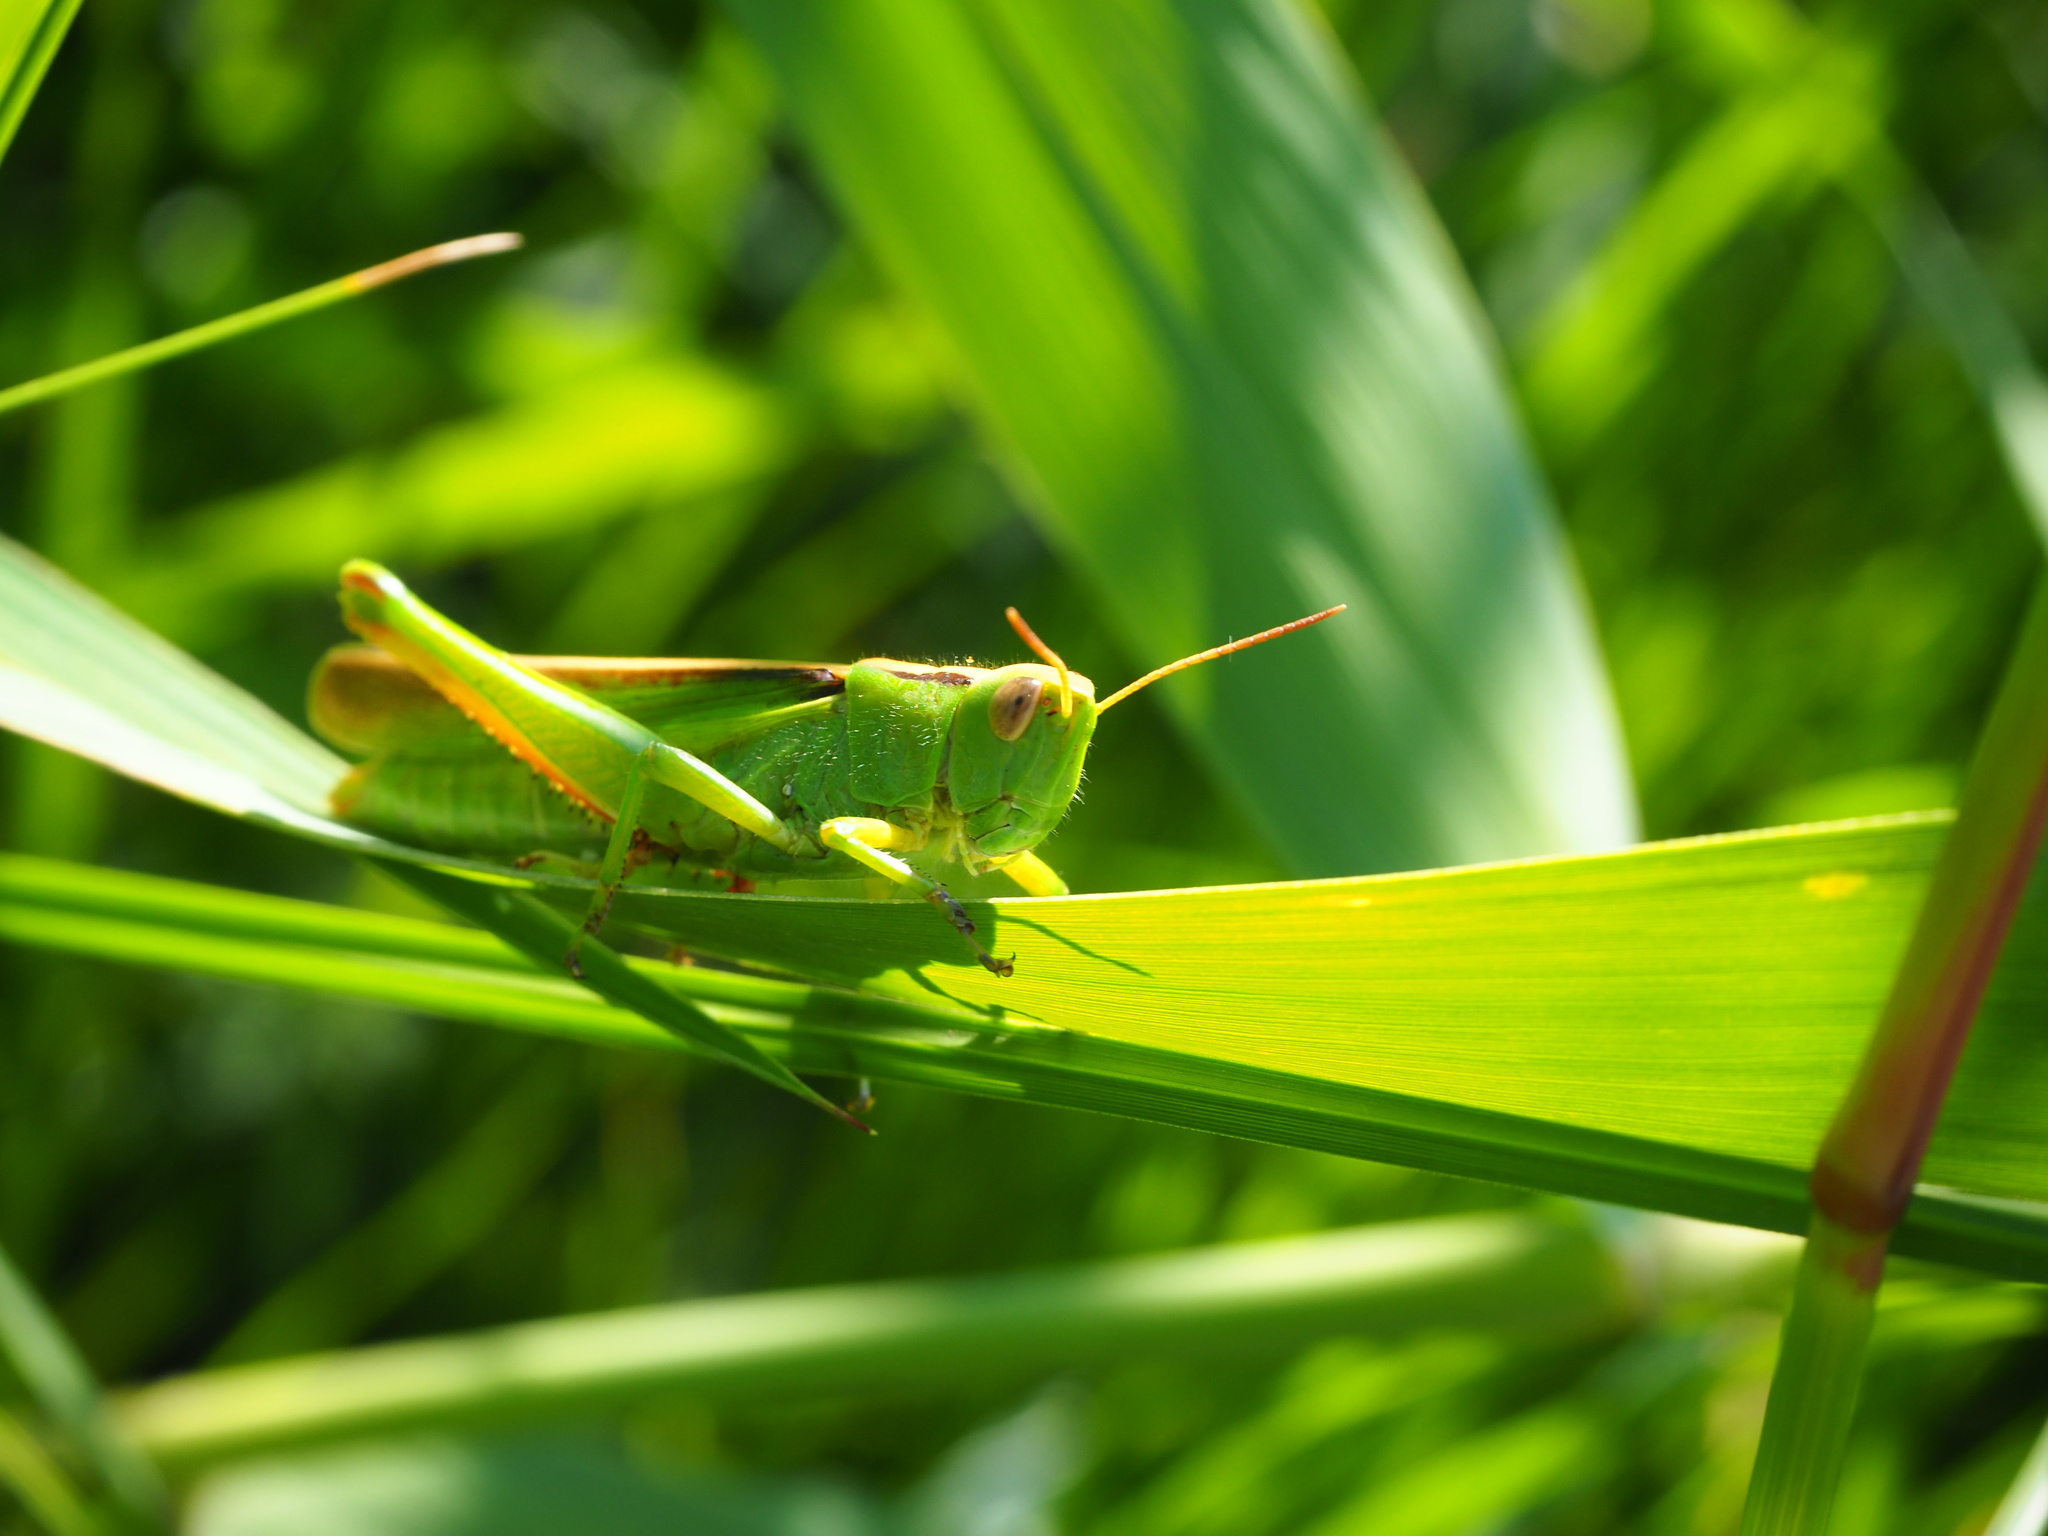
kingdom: Animalia
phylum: Arthropoda
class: Insecta
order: Orthoptera
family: Acrididae
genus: Paracinema
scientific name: Paracinema tricolor
